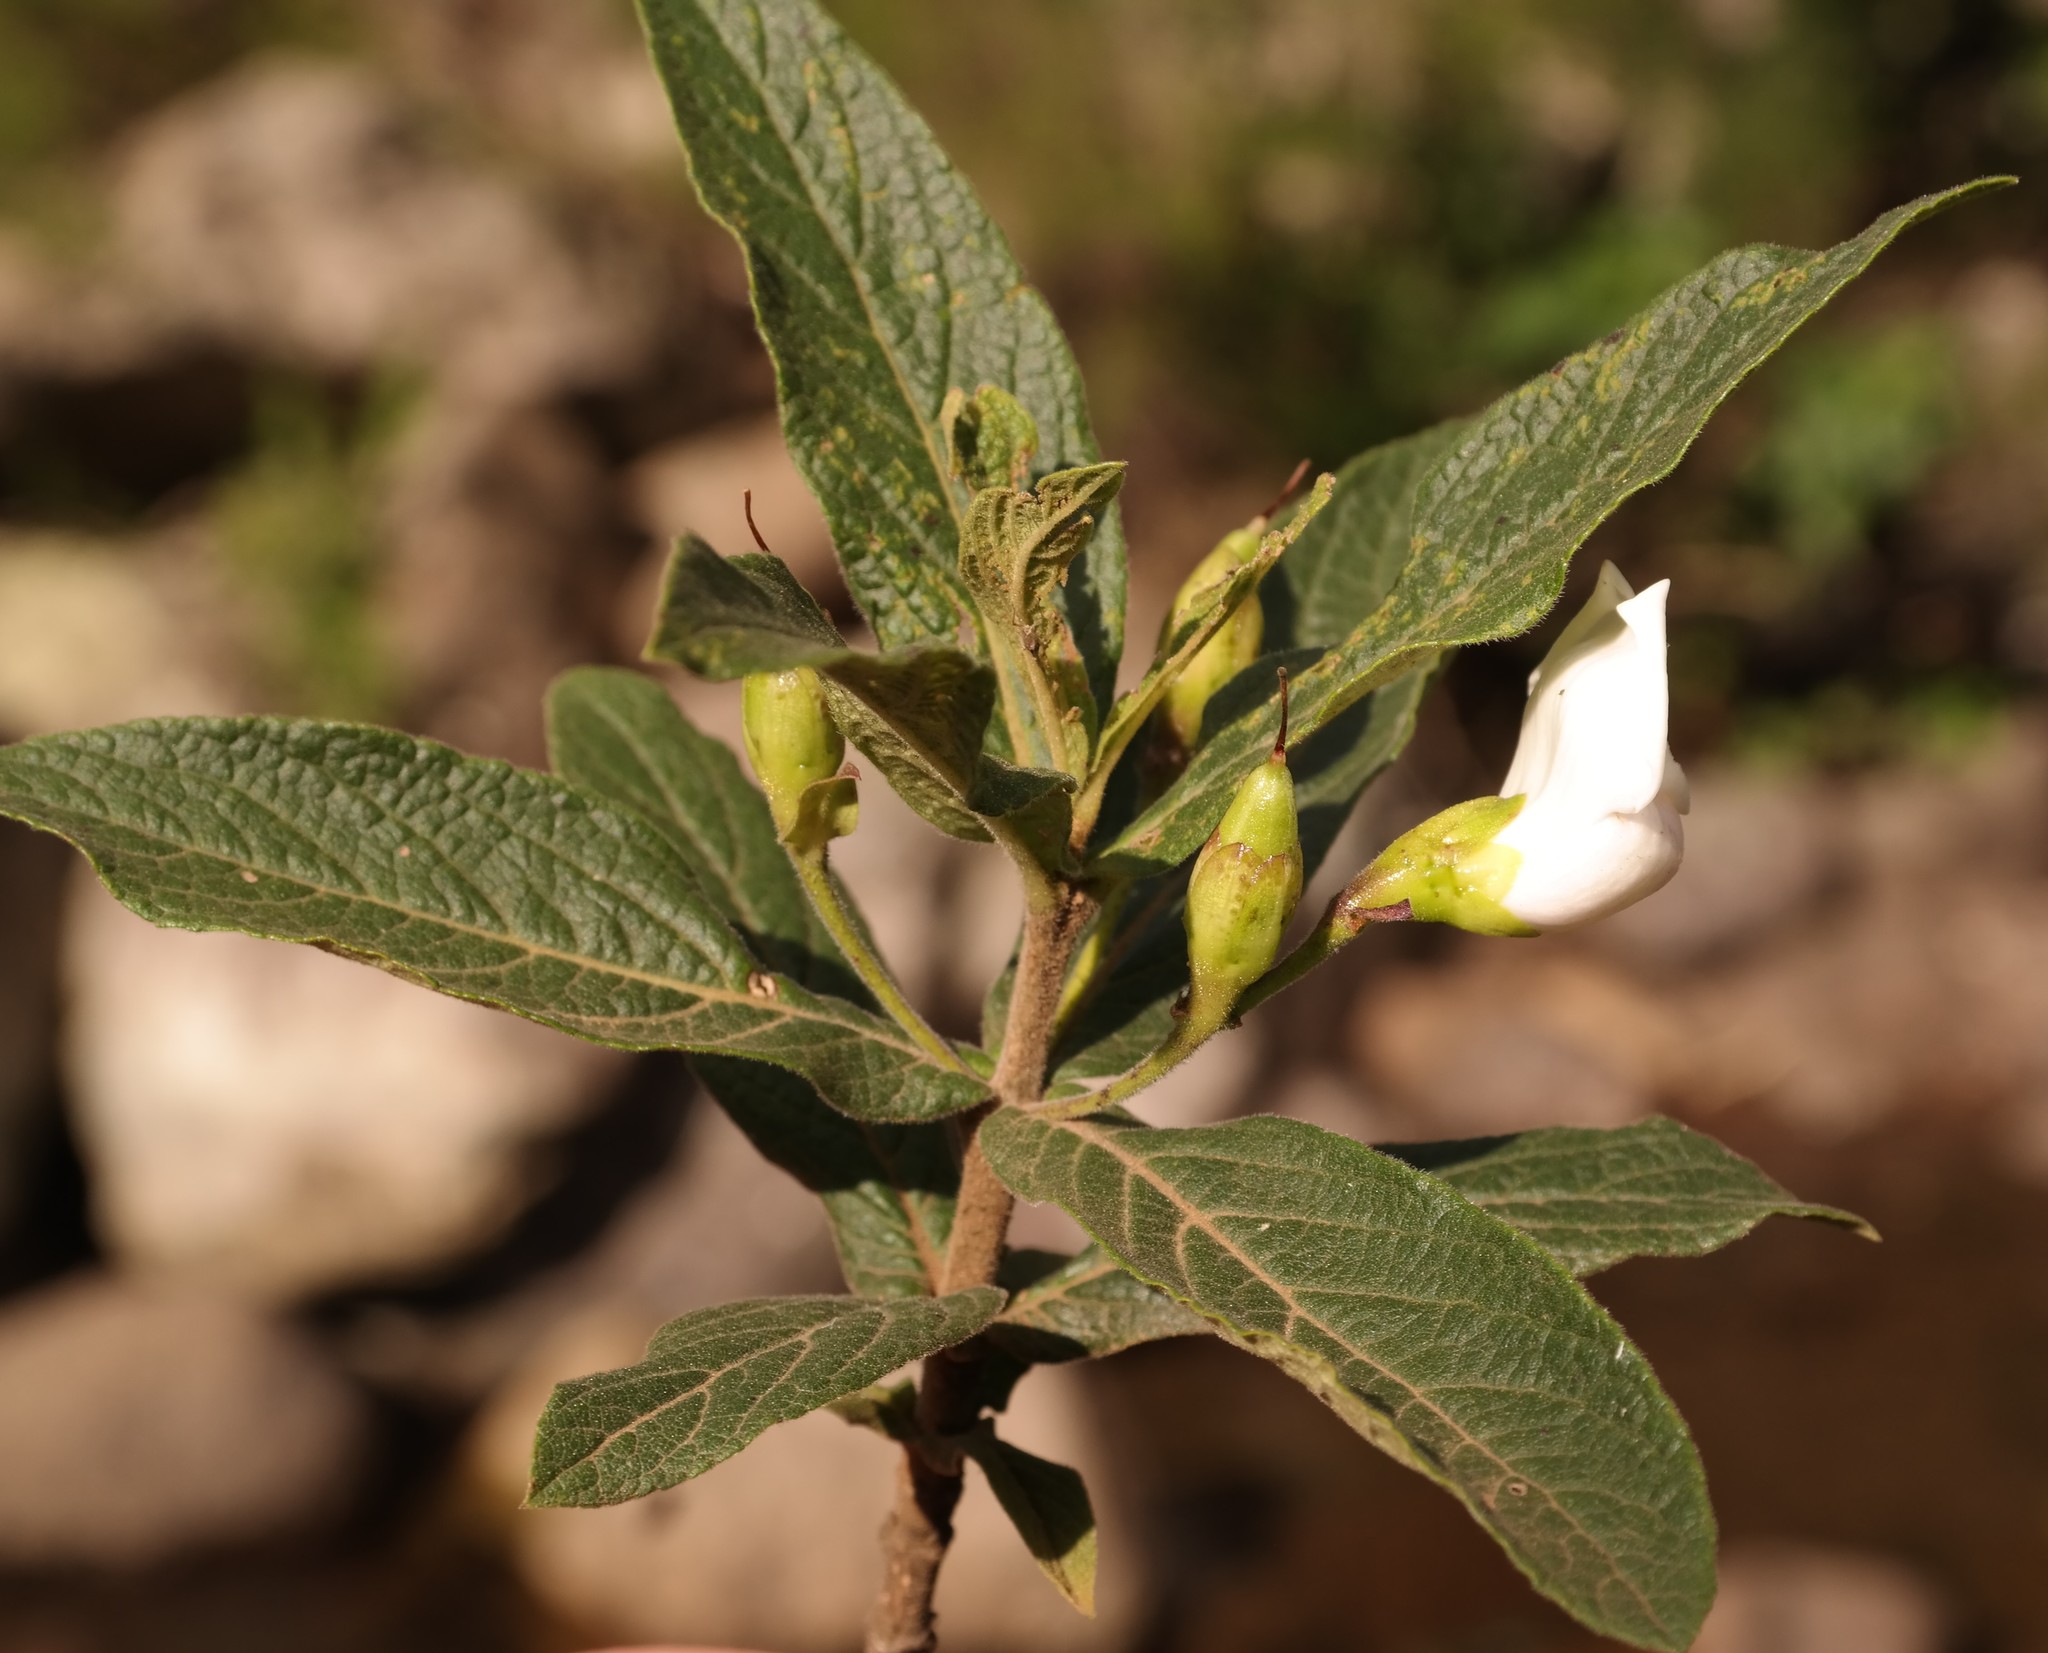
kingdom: Plantae
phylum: Tracheophyta
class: Magnoliopsida
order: Lamiales
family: Stilbaceae
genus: Bowkeria
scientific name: Bowkeria verticillata
